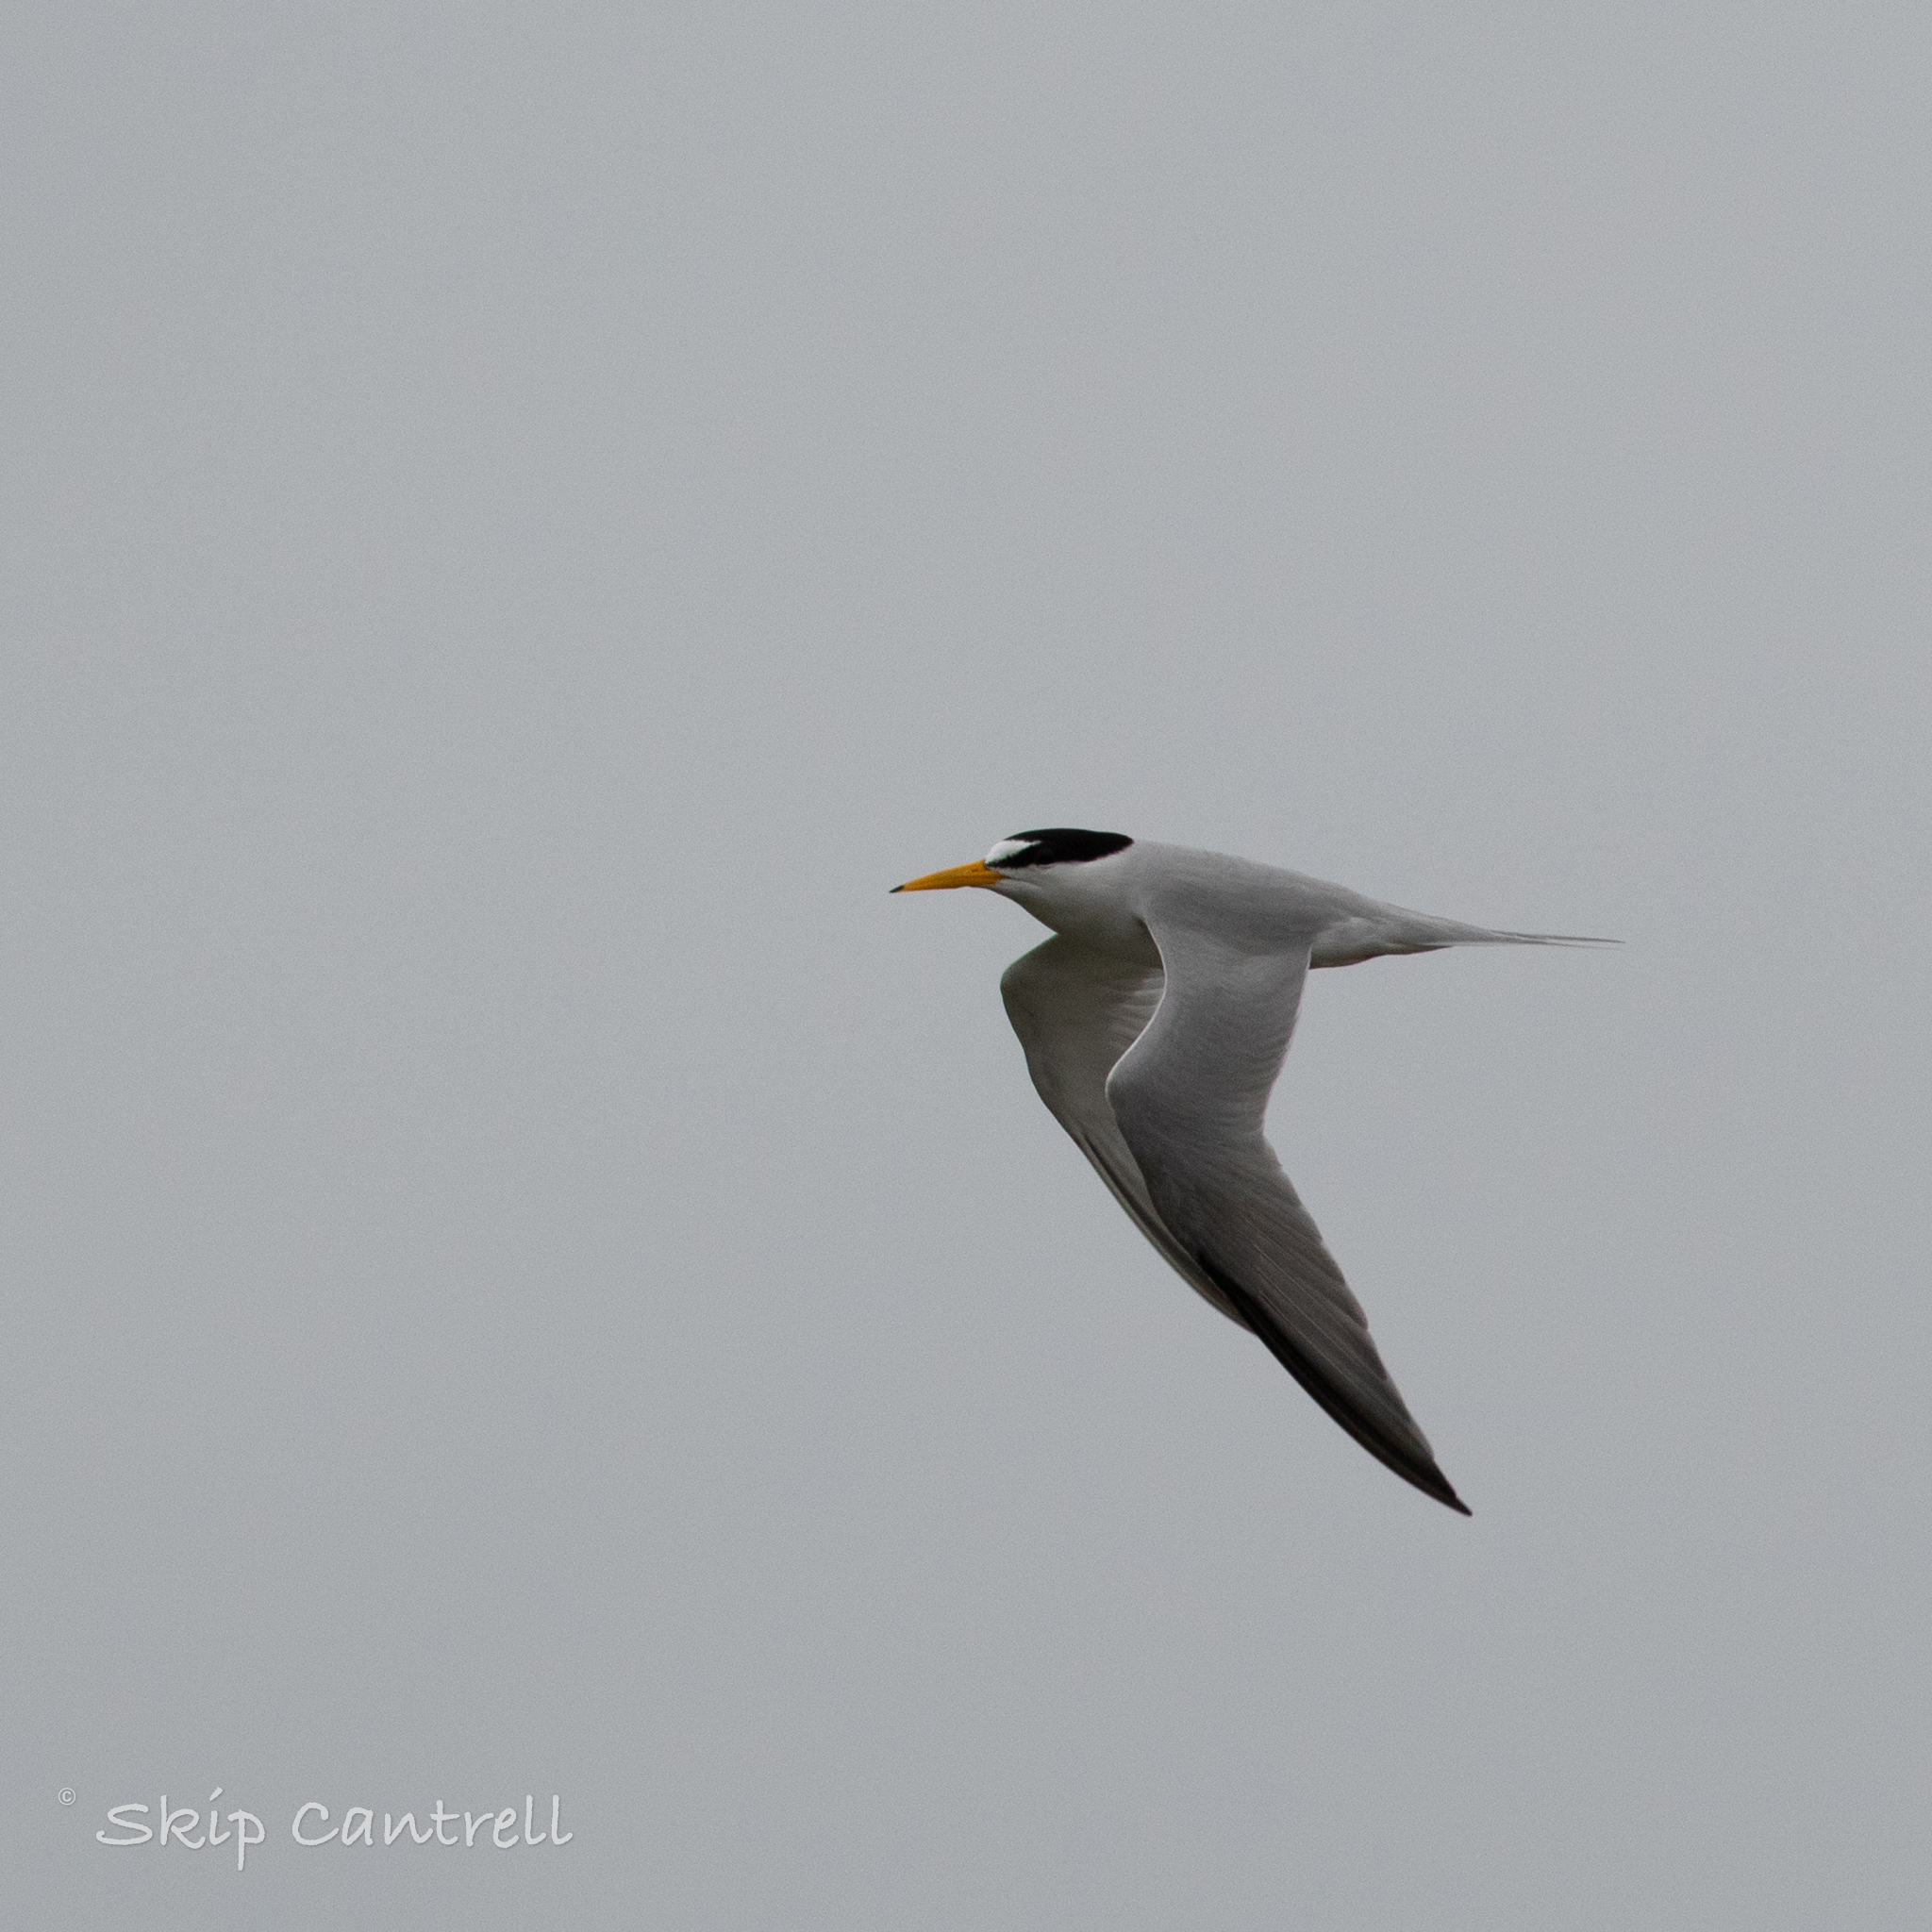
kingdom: Animalia
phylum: Chordata
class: Aves
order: Charadriiformes
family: Laridae
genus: Sternula
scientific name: Sternula antillarum
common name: Least tern
